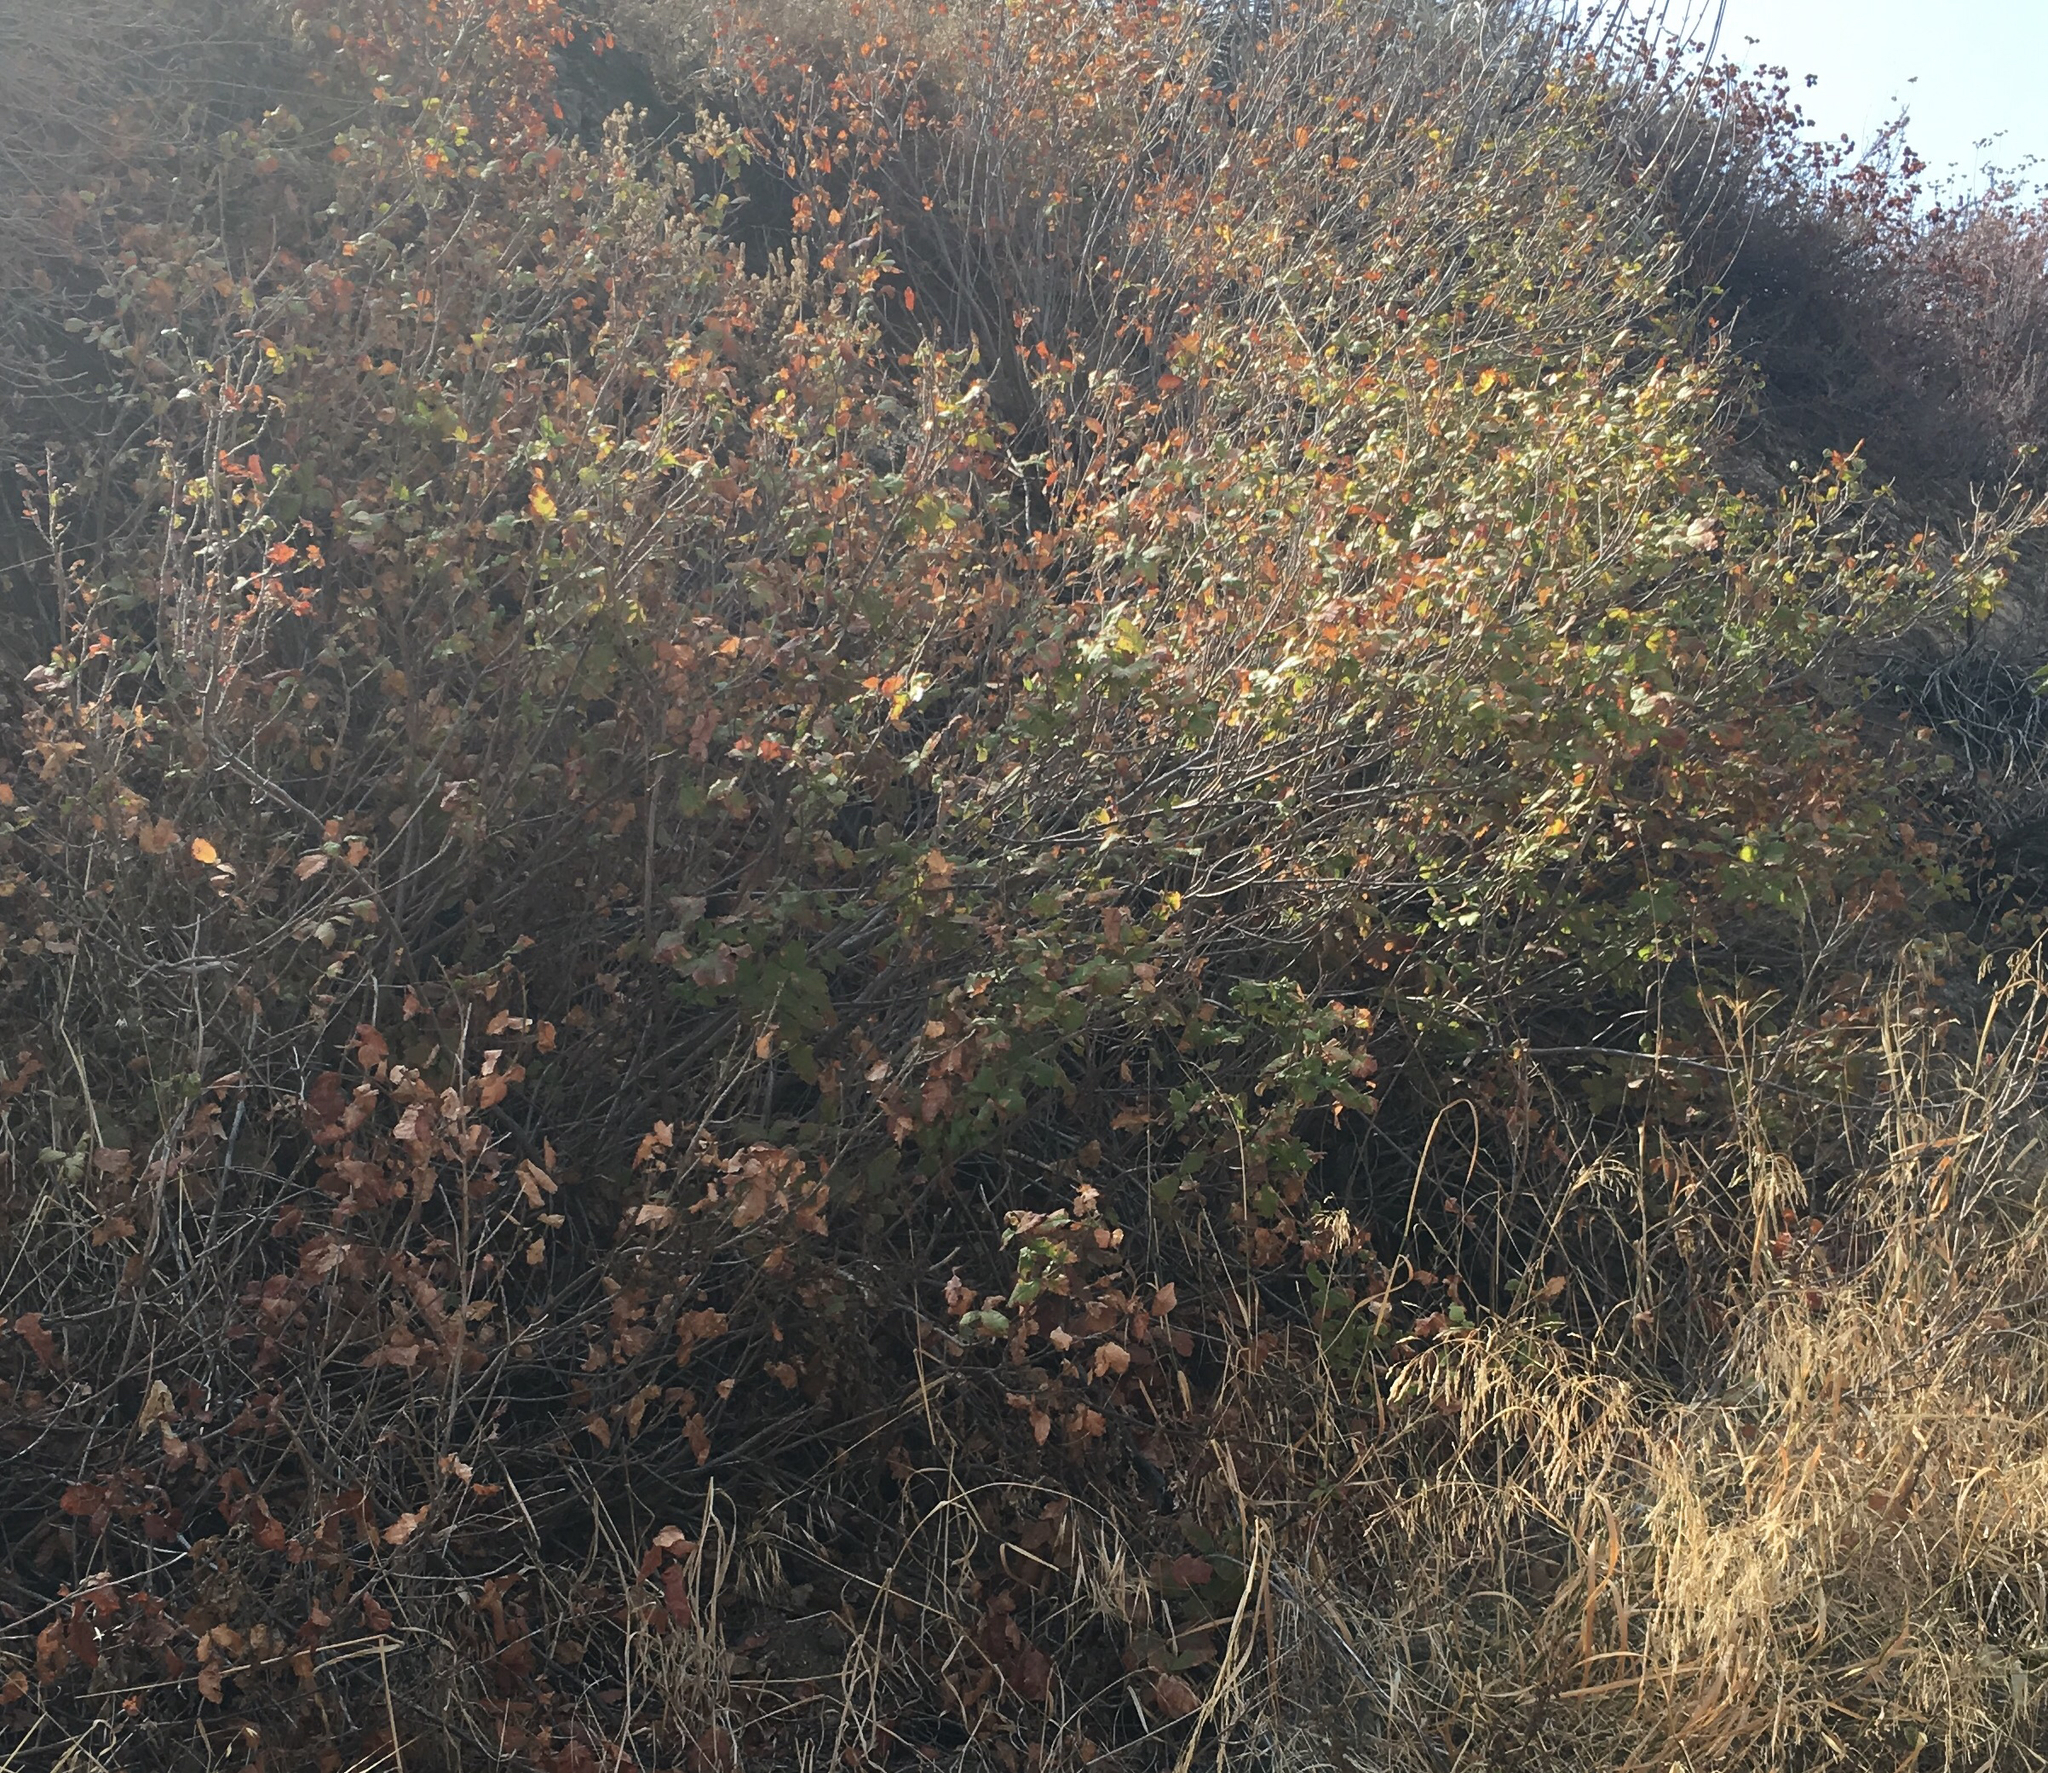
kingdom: Plantae
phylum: Tracheophyta
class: Magnoliopsida
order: Sapindales
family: Anacardiaceae
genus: Toxicodendron
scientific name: Toxicodendron diversilobum
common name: Pacific poison-oak
